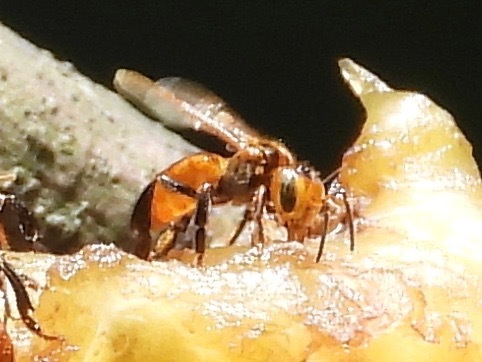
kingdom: Animalia
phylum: Arthropoda
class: Insecta
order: Hymenoptera
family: Apidae
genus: Oxytrigona
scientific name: Oxytrigona mediorufa
